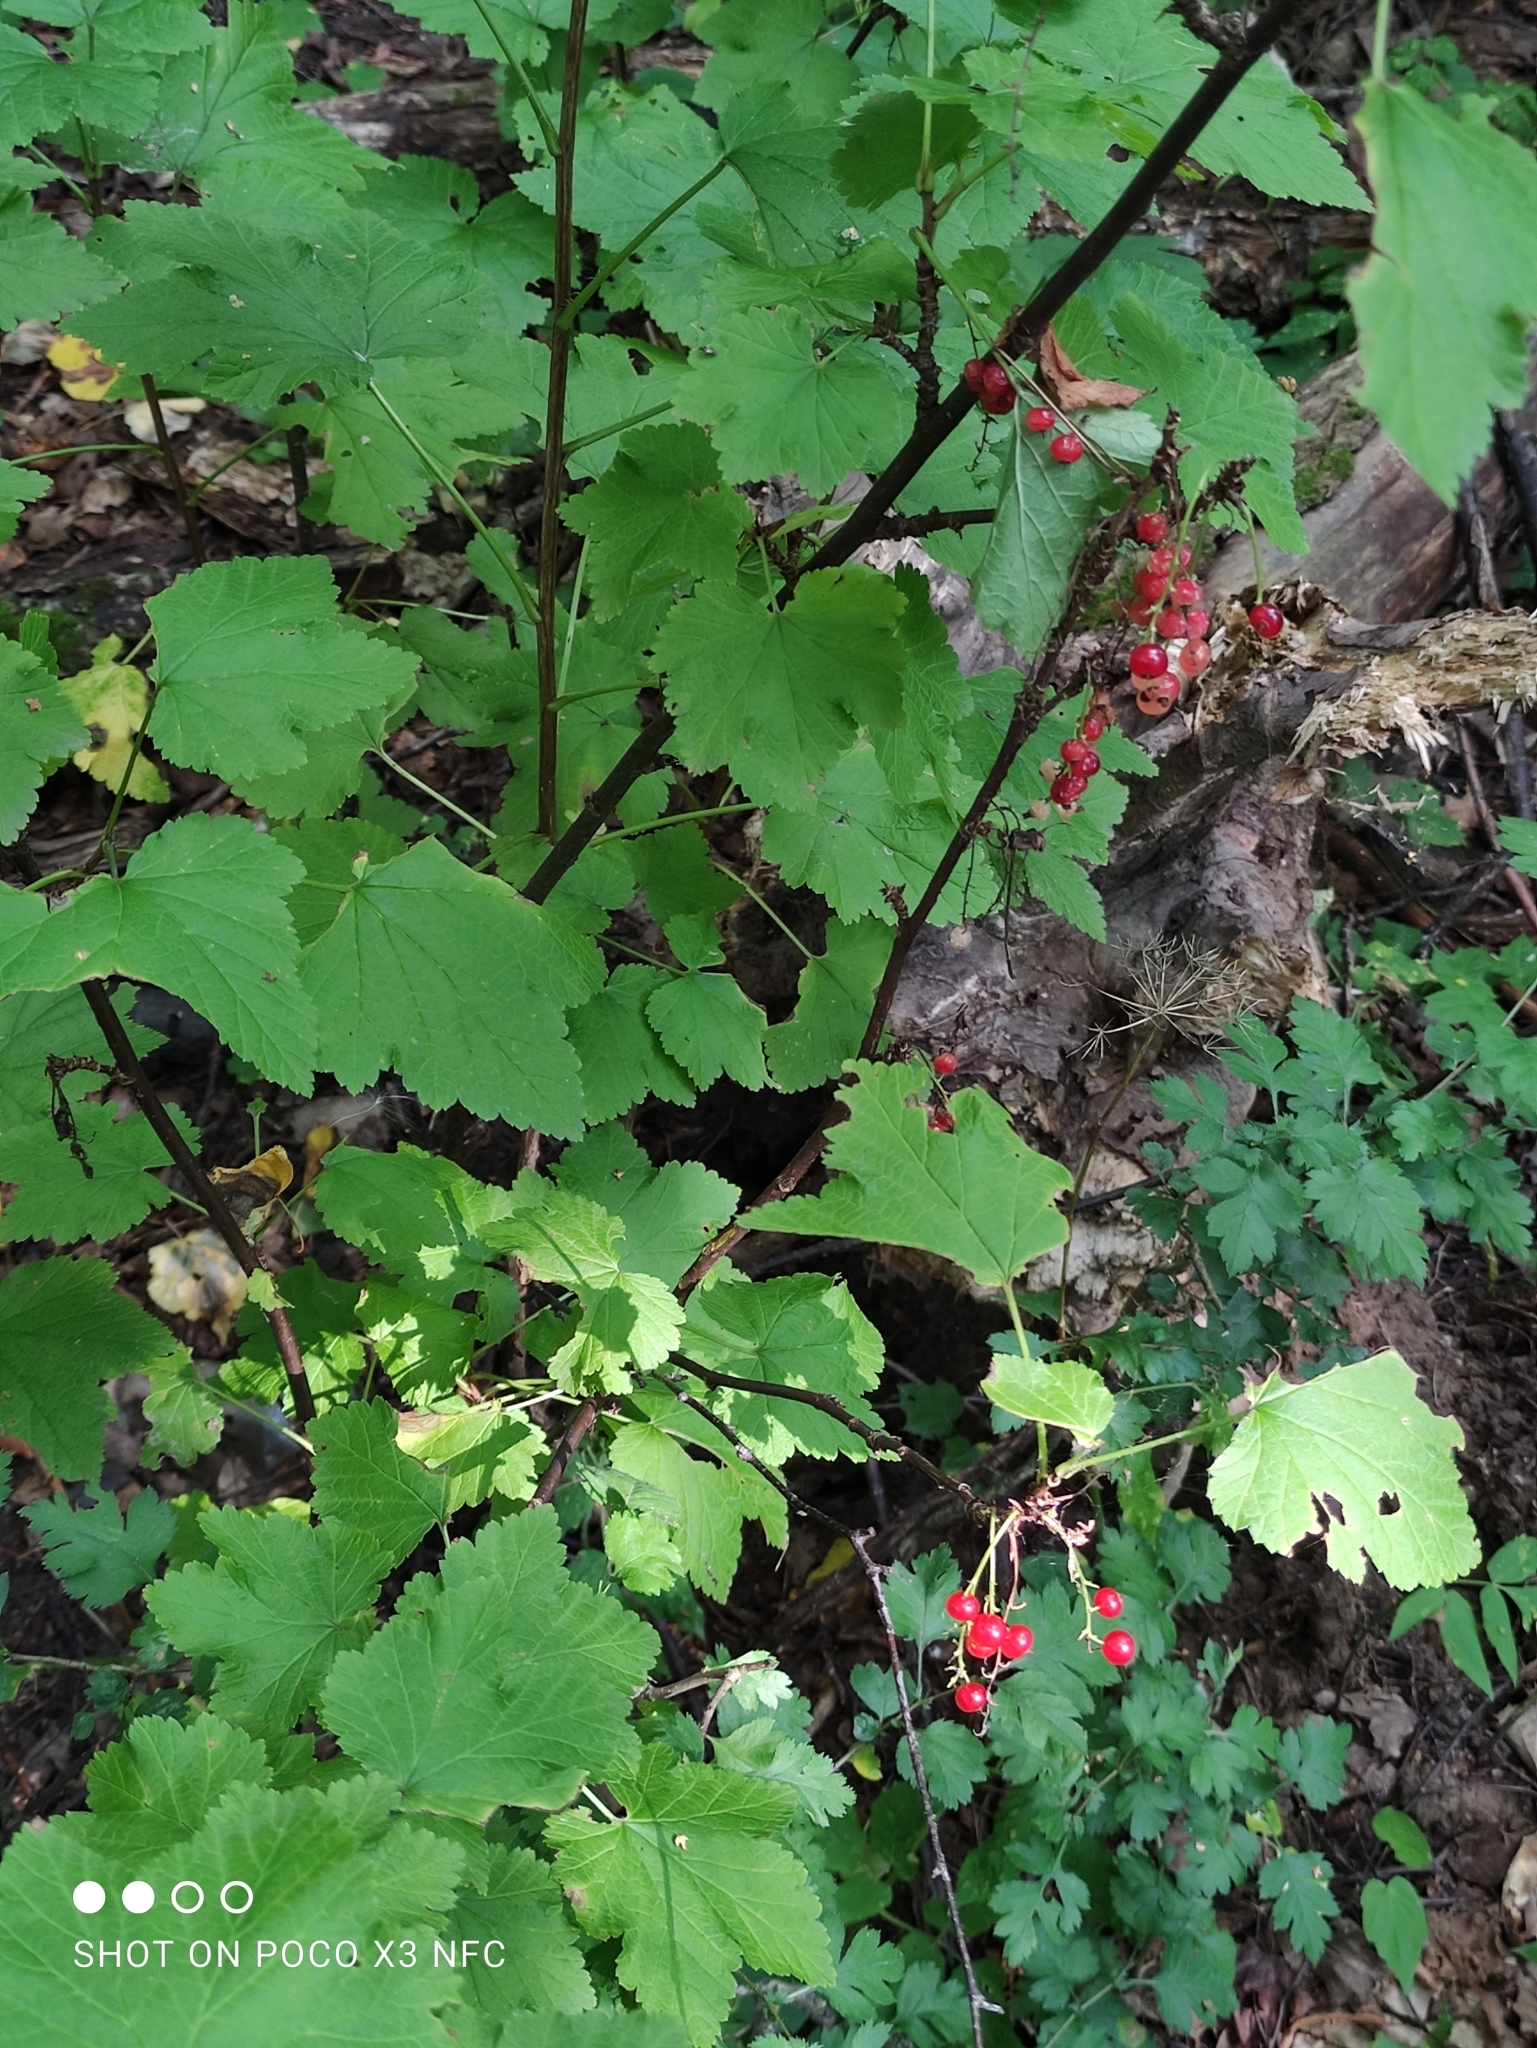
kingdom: Plantae
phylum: Tracheophyta
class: Magnoliopsida
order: Saxifragales
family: Grossulariaceae
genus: Ribes
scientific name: Ribes rubrum
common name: Red currant
